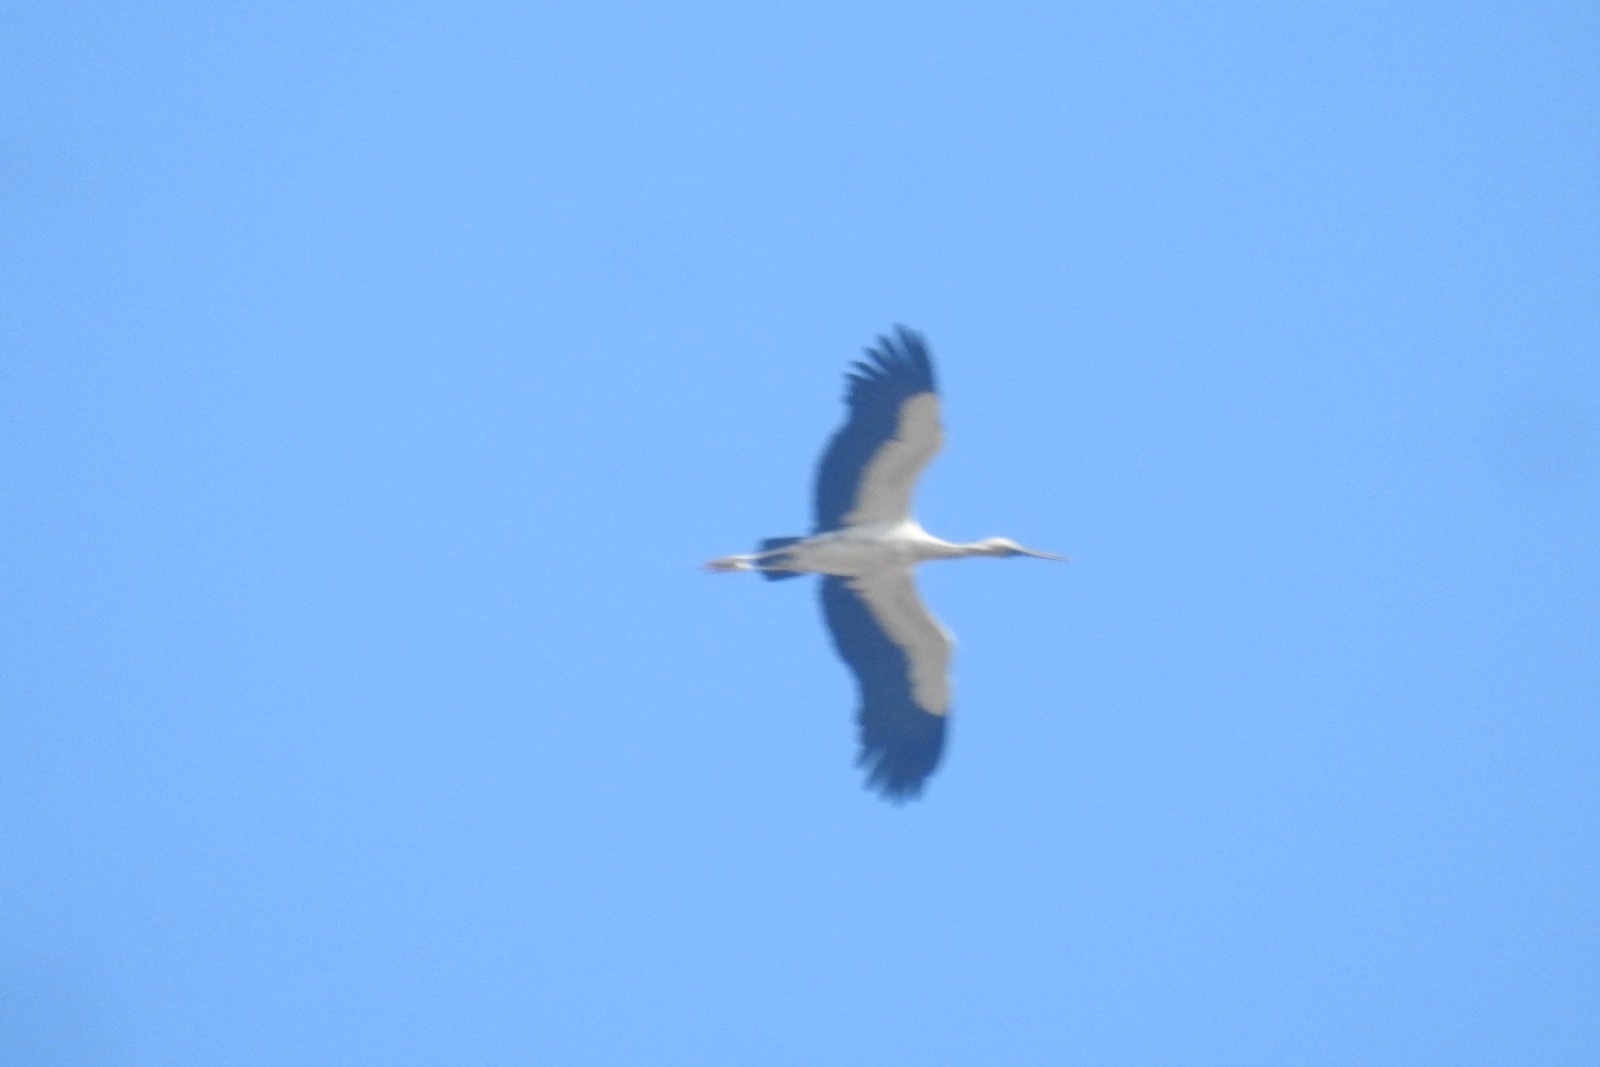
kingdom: Animalia
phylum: Chordata
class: Aves
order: Ciconiiformes
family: Ciconiidae
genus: Anastomus
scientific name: Anastomus oscitans
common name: Asian openbill
